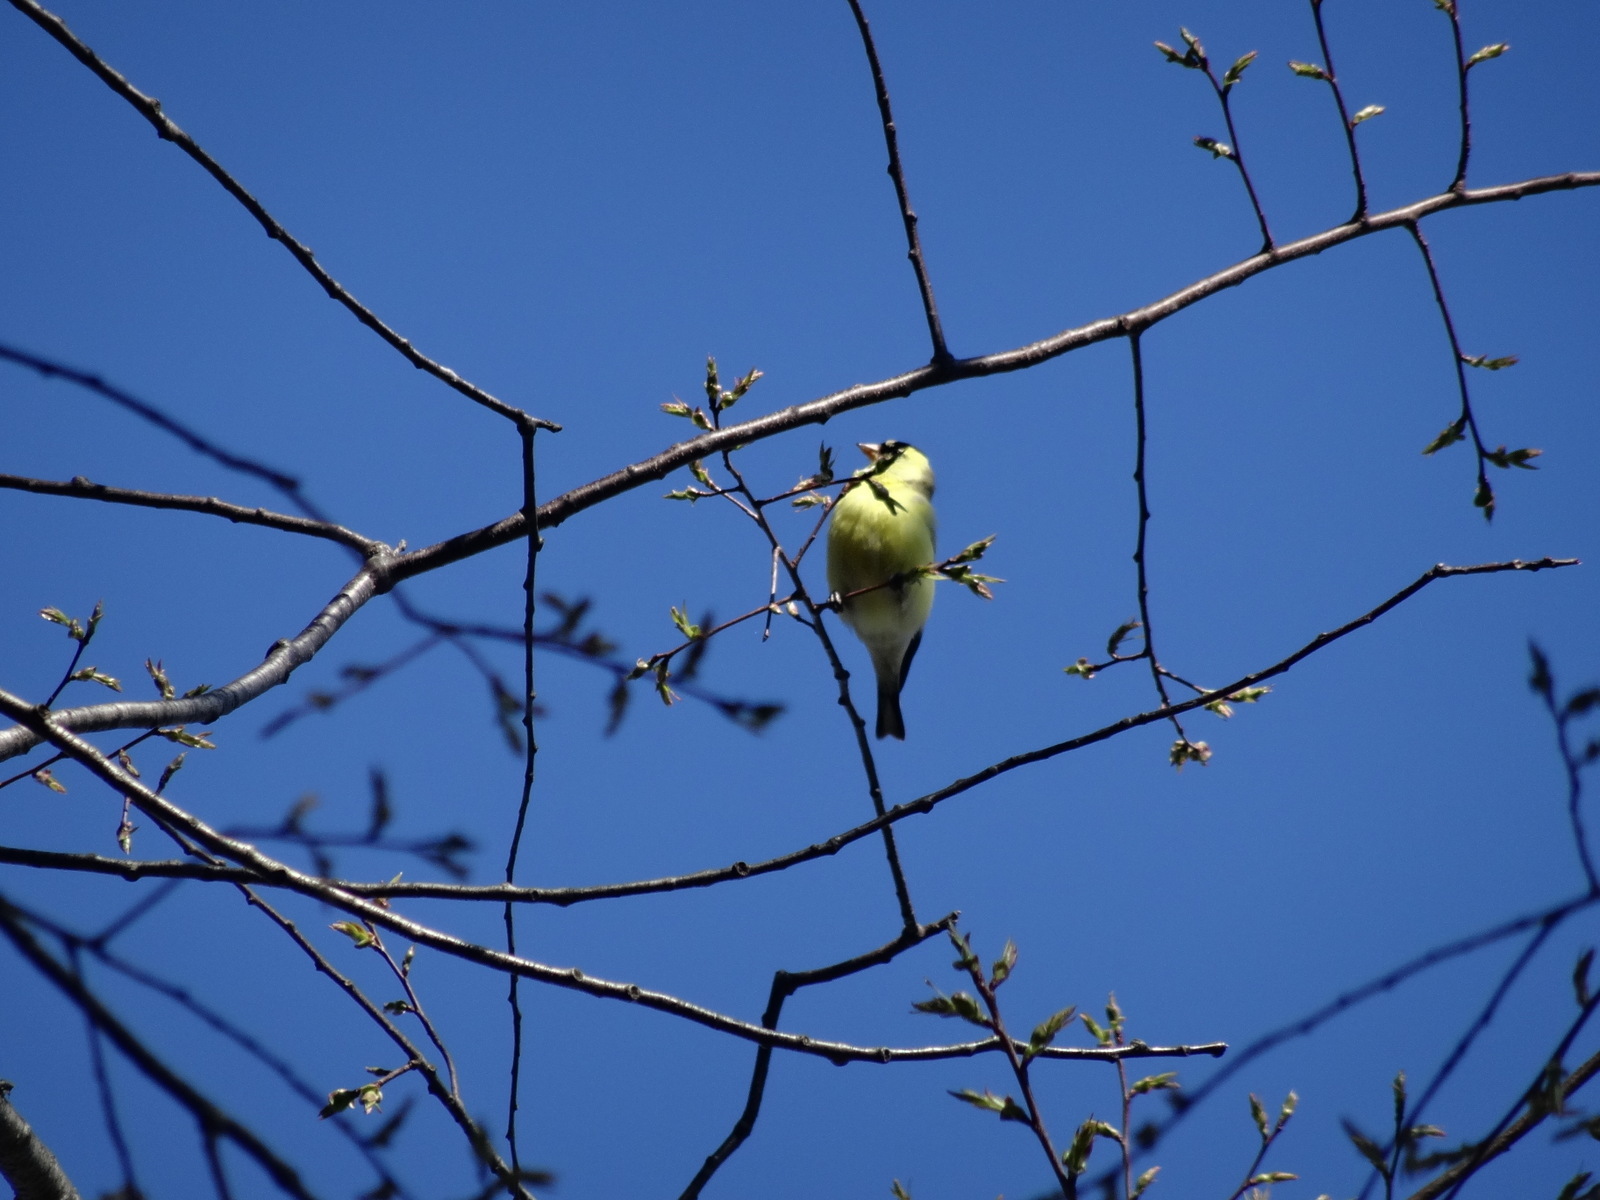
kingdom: Animalia
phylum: Chordata
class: Aves
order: Passeriformes
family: Fringillidae
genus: Spinus
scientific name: Spinus tristis
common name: American goldfinch
